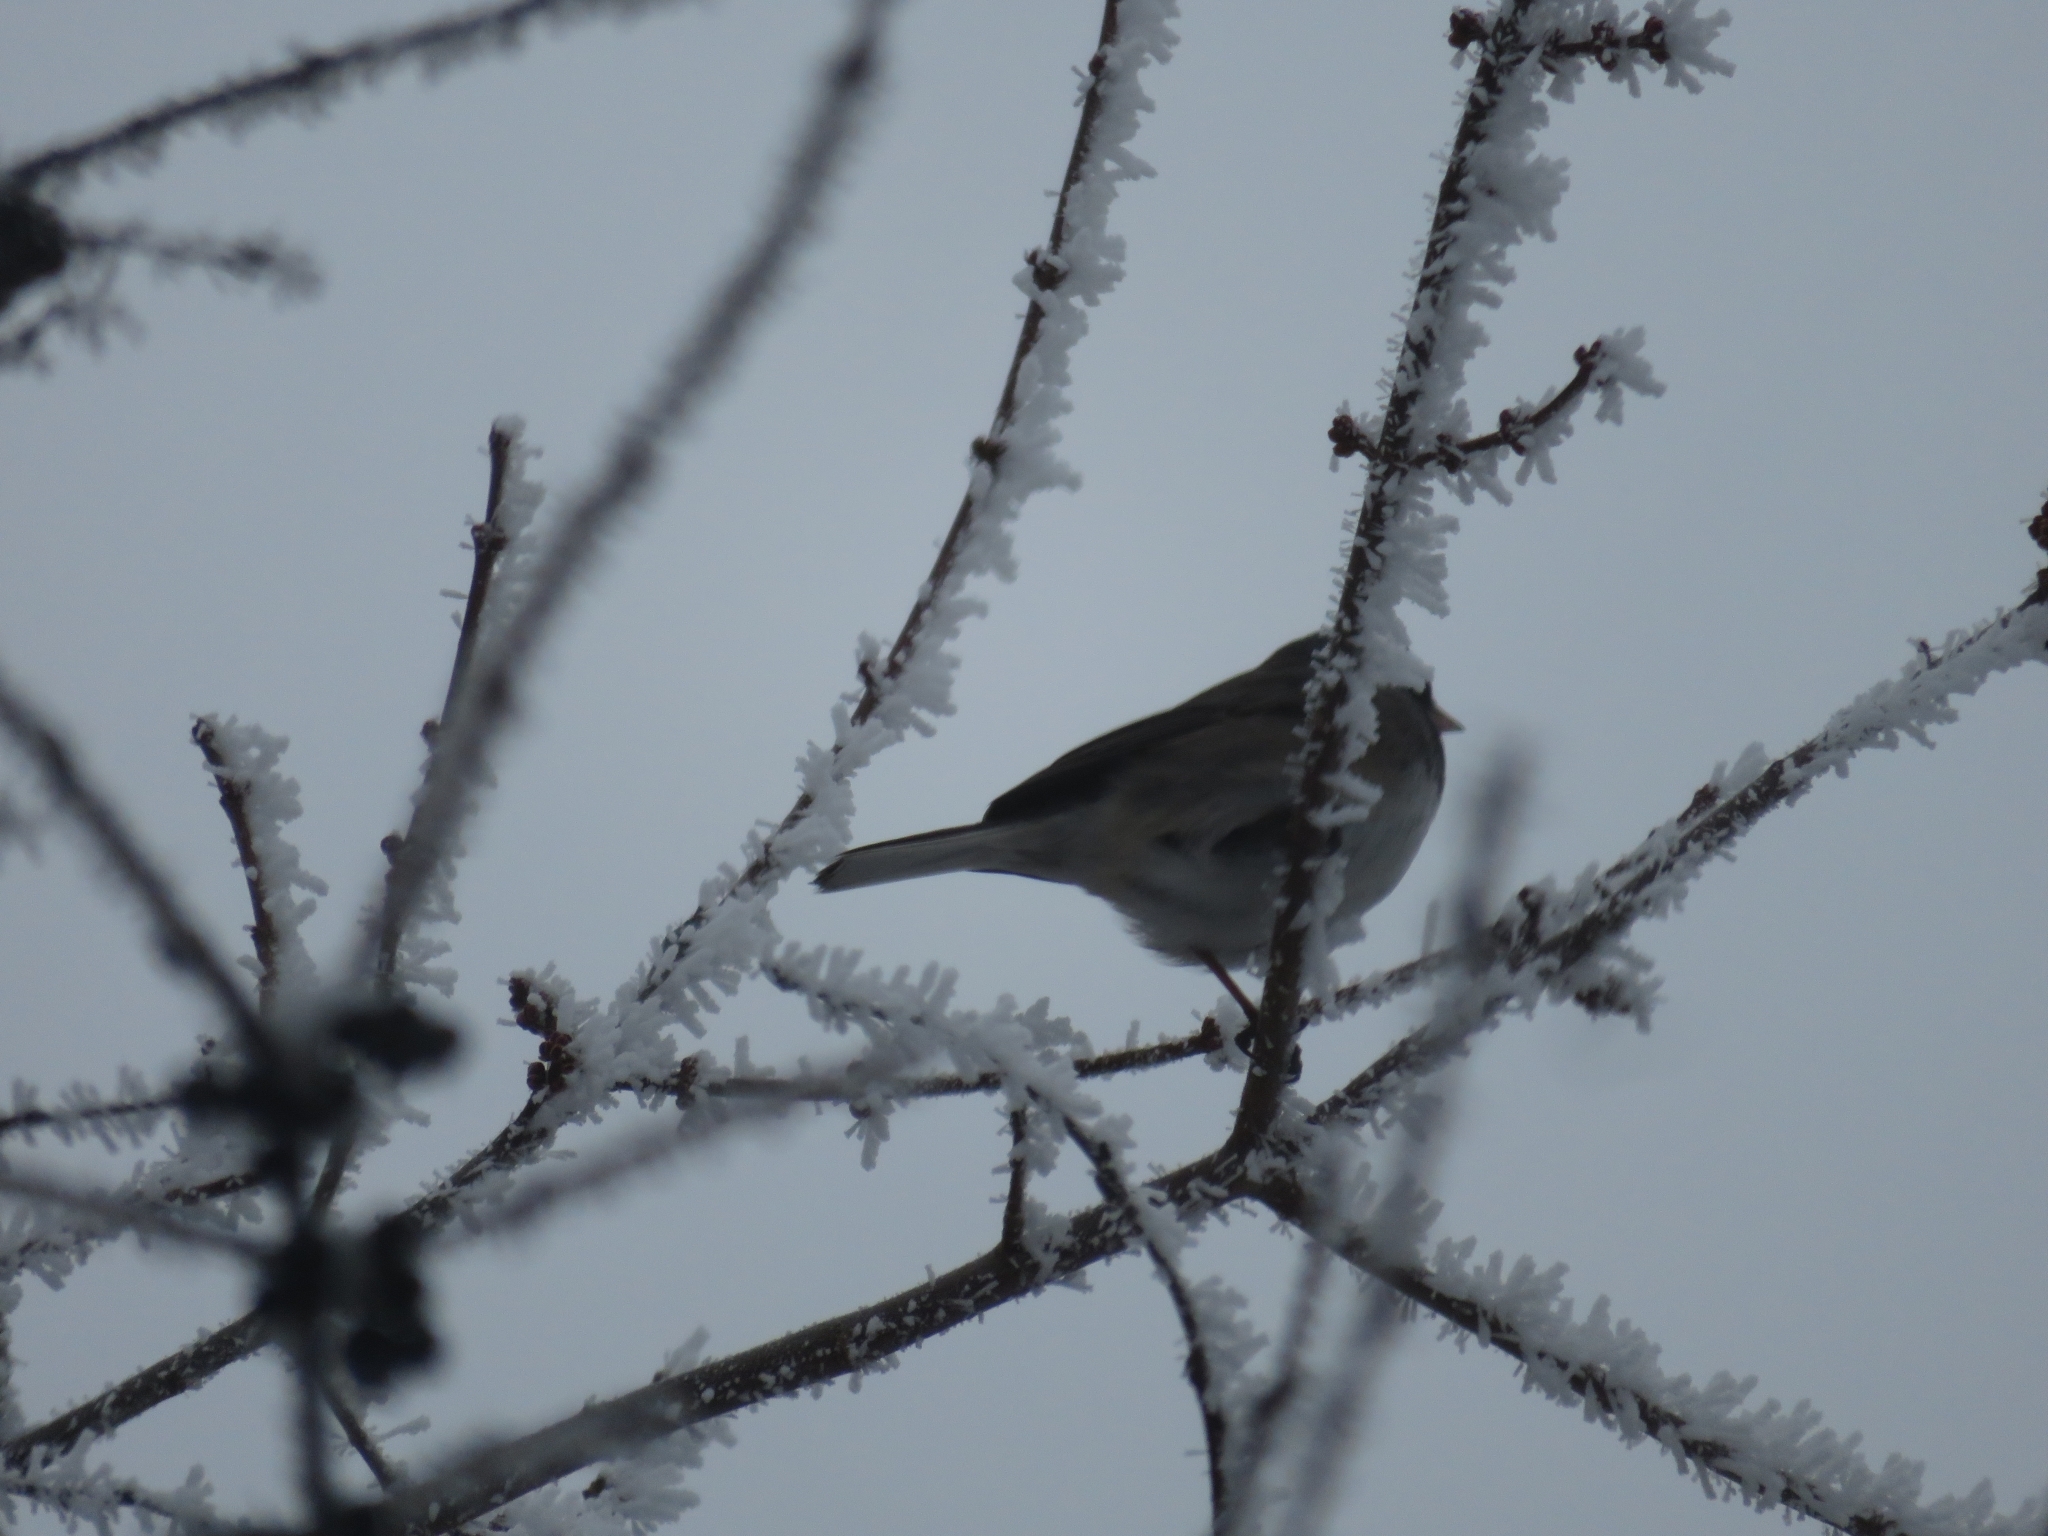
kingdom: Animalia
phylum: Chordata
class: Aves
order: Passeriformes
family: Passerellidae
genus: Junco
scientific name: Junco hyemalis
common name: Dark-eyed junco
